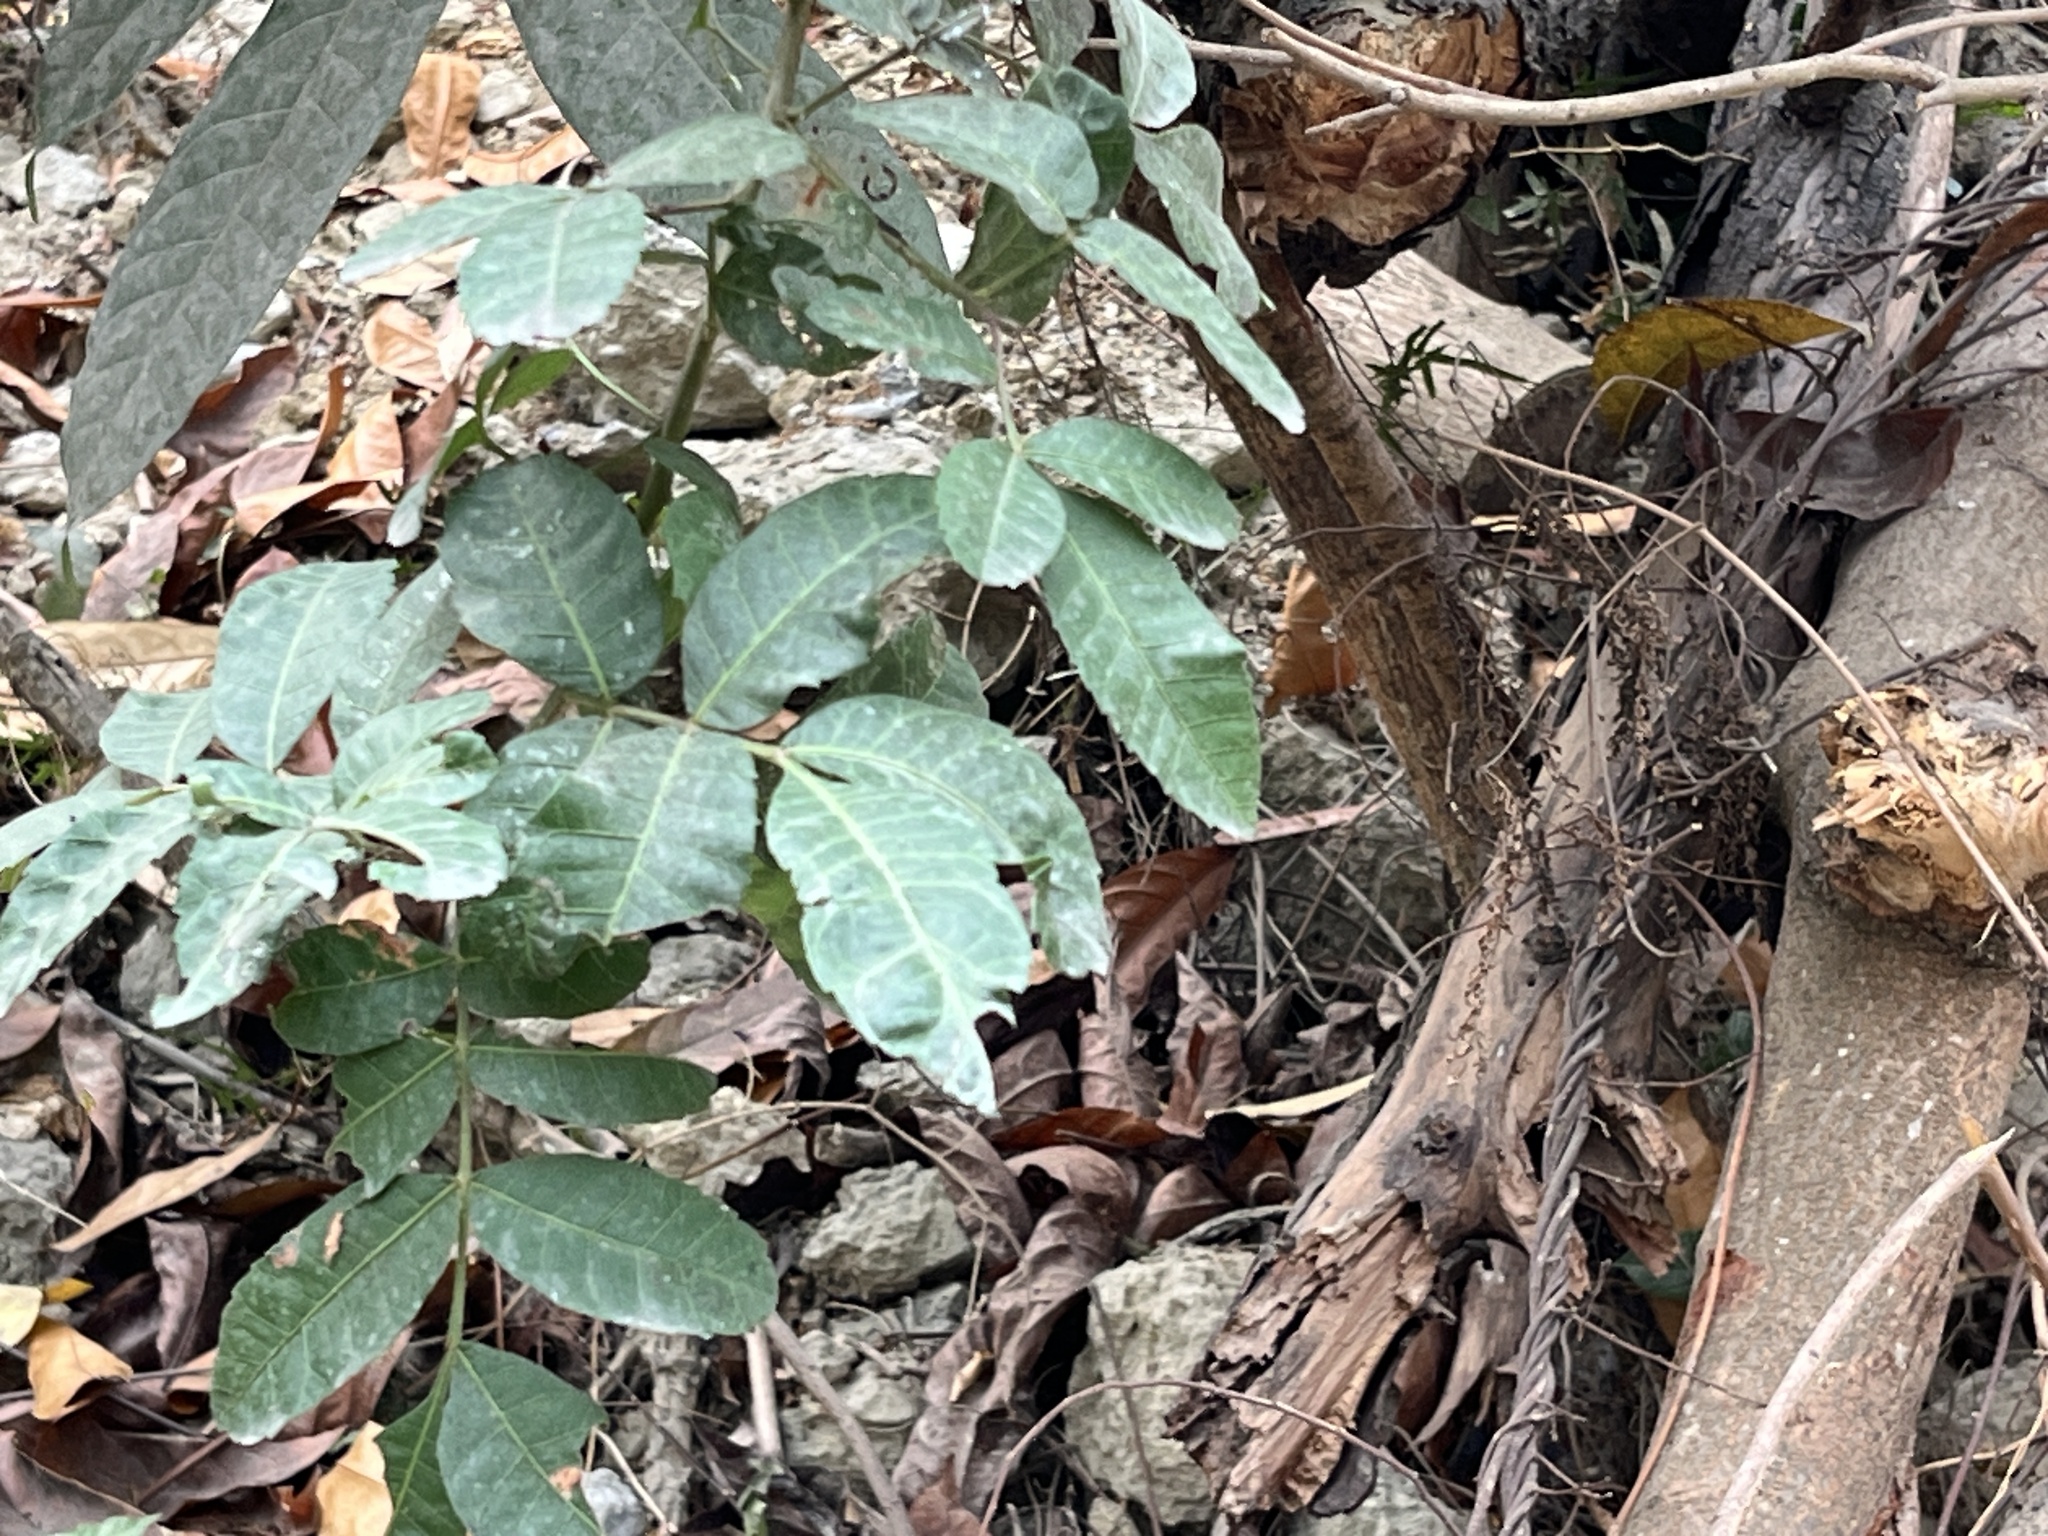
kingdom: Plantae
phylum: Tracheophyta
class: Magnoliopsida
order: Sapindales
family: Anacardiaceae
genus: Schinus
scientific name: Schinus terebinthifolia
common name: Brazilian peppertree
